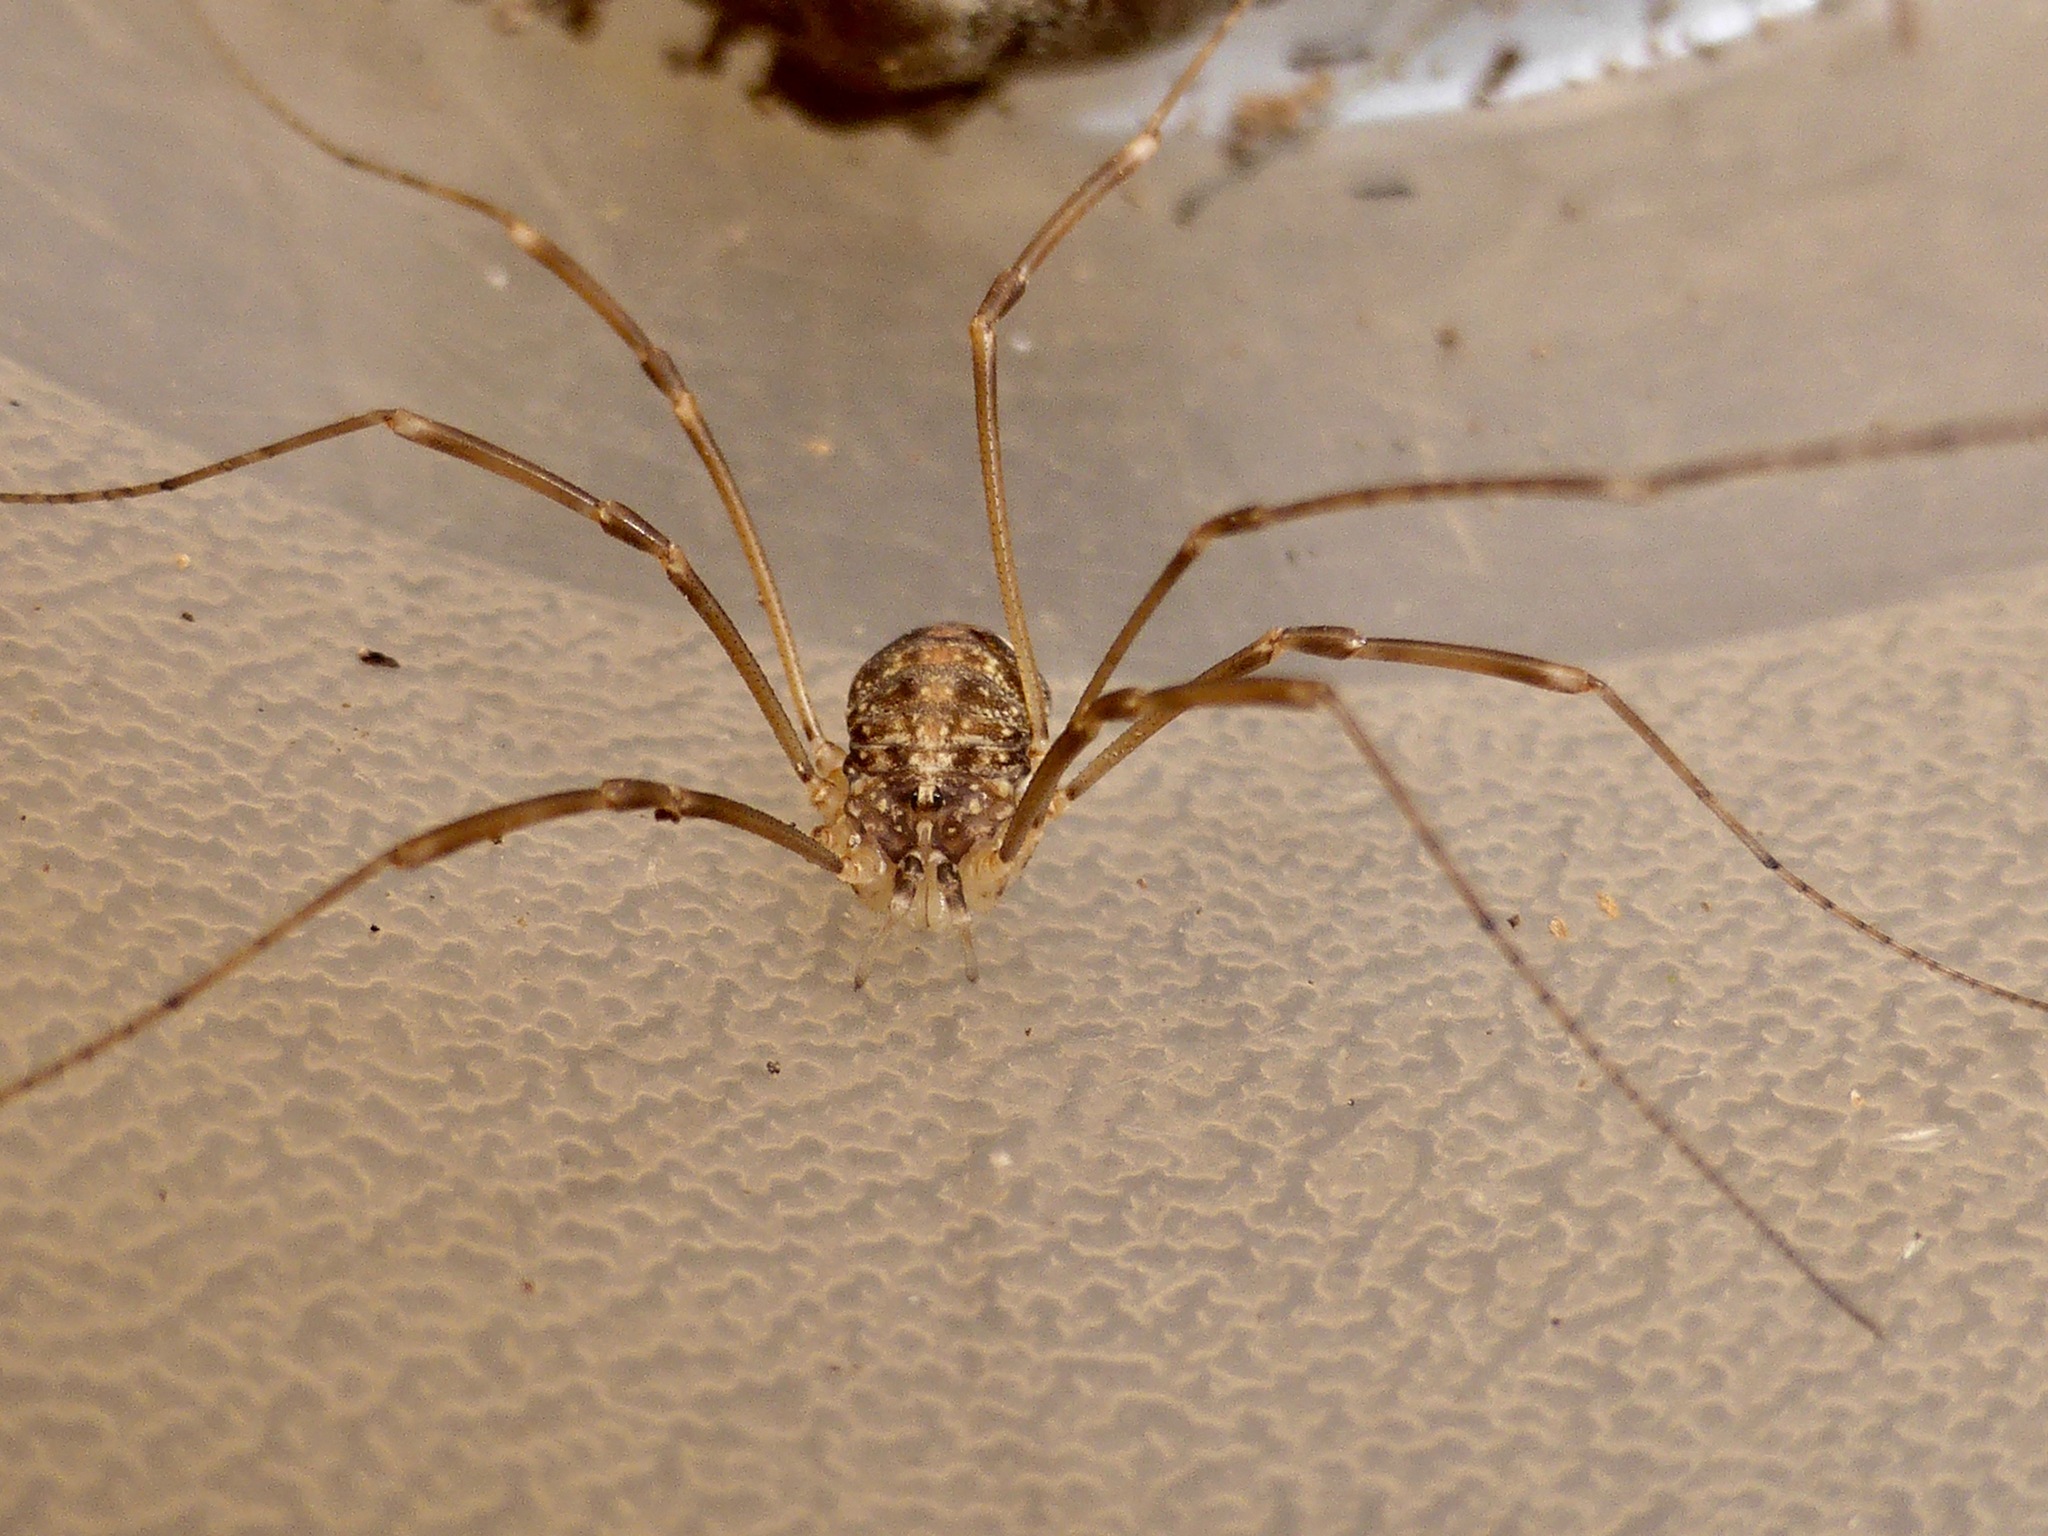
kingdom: Animalia
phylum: Arthropoda
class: Arachnida
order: Opiliones
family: Phalangiidae
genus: Phalangium
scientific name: Phalangium opilio
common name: Daddy longleg
